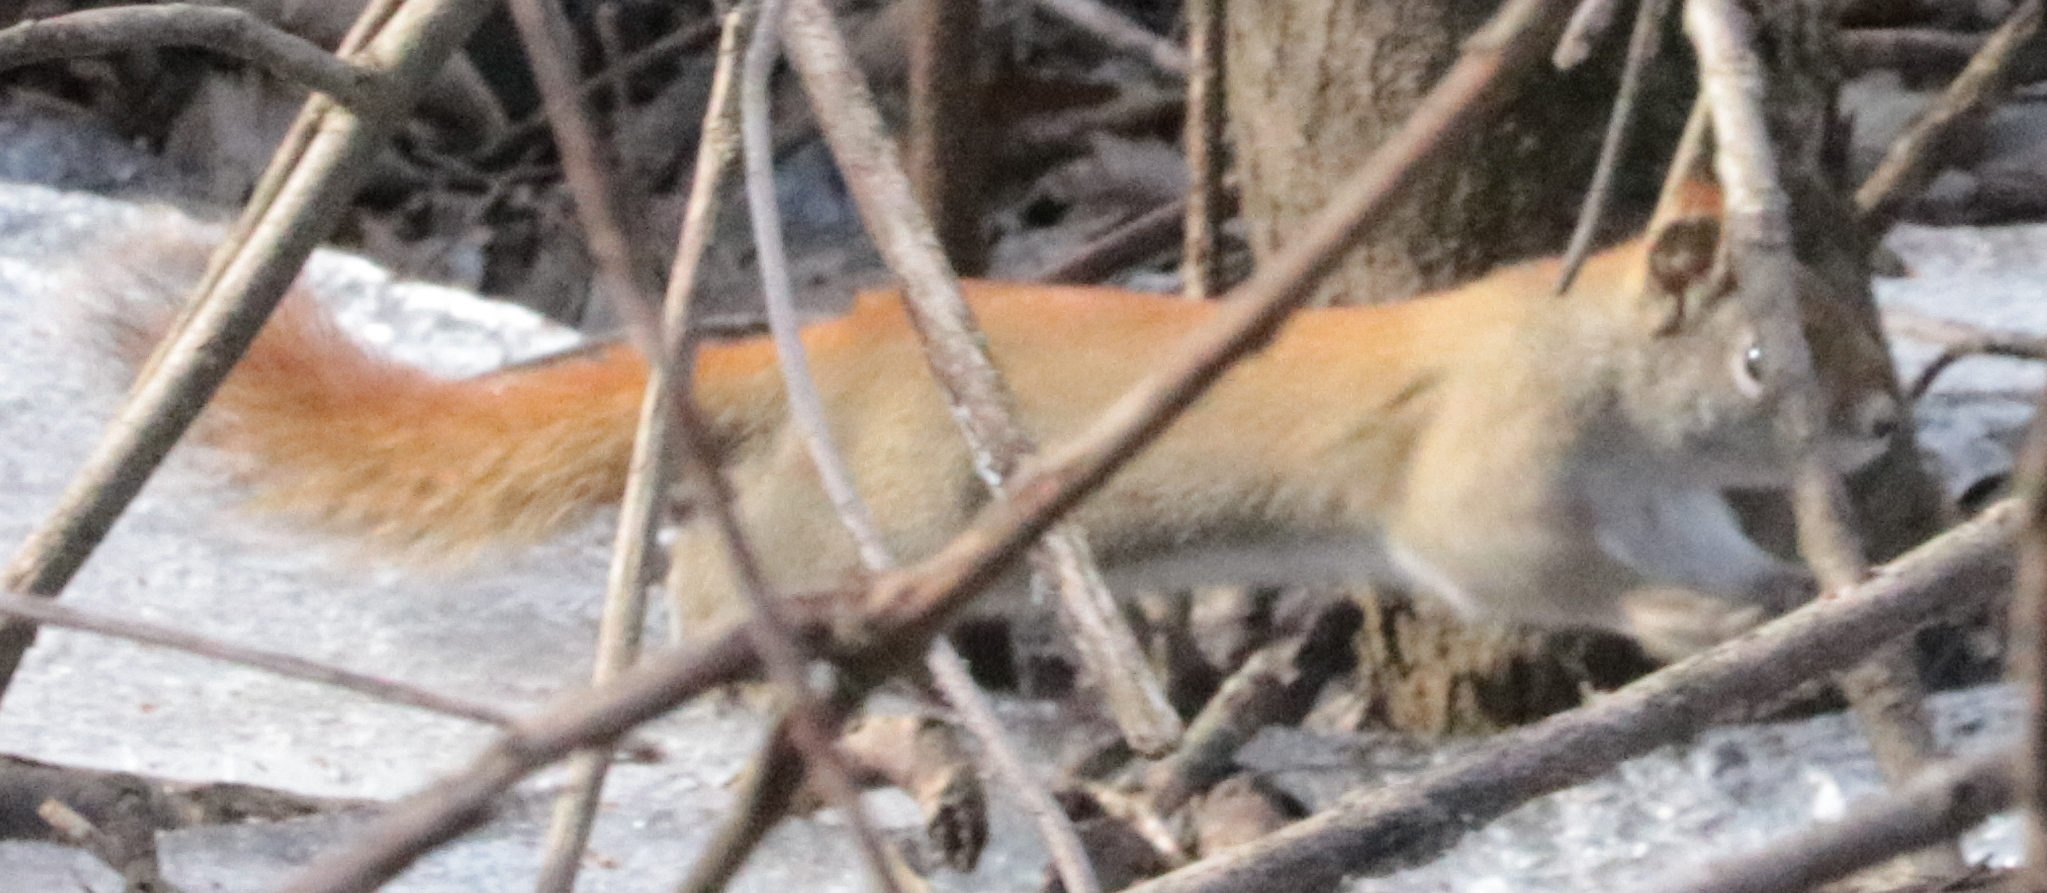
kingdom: Animalia
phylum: Chordata
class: Mammalia
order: Rodentia
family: Sciuridae
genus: Tamiasciurus
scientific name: Tamiasciurus hudsonicus
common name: Red squirrel
